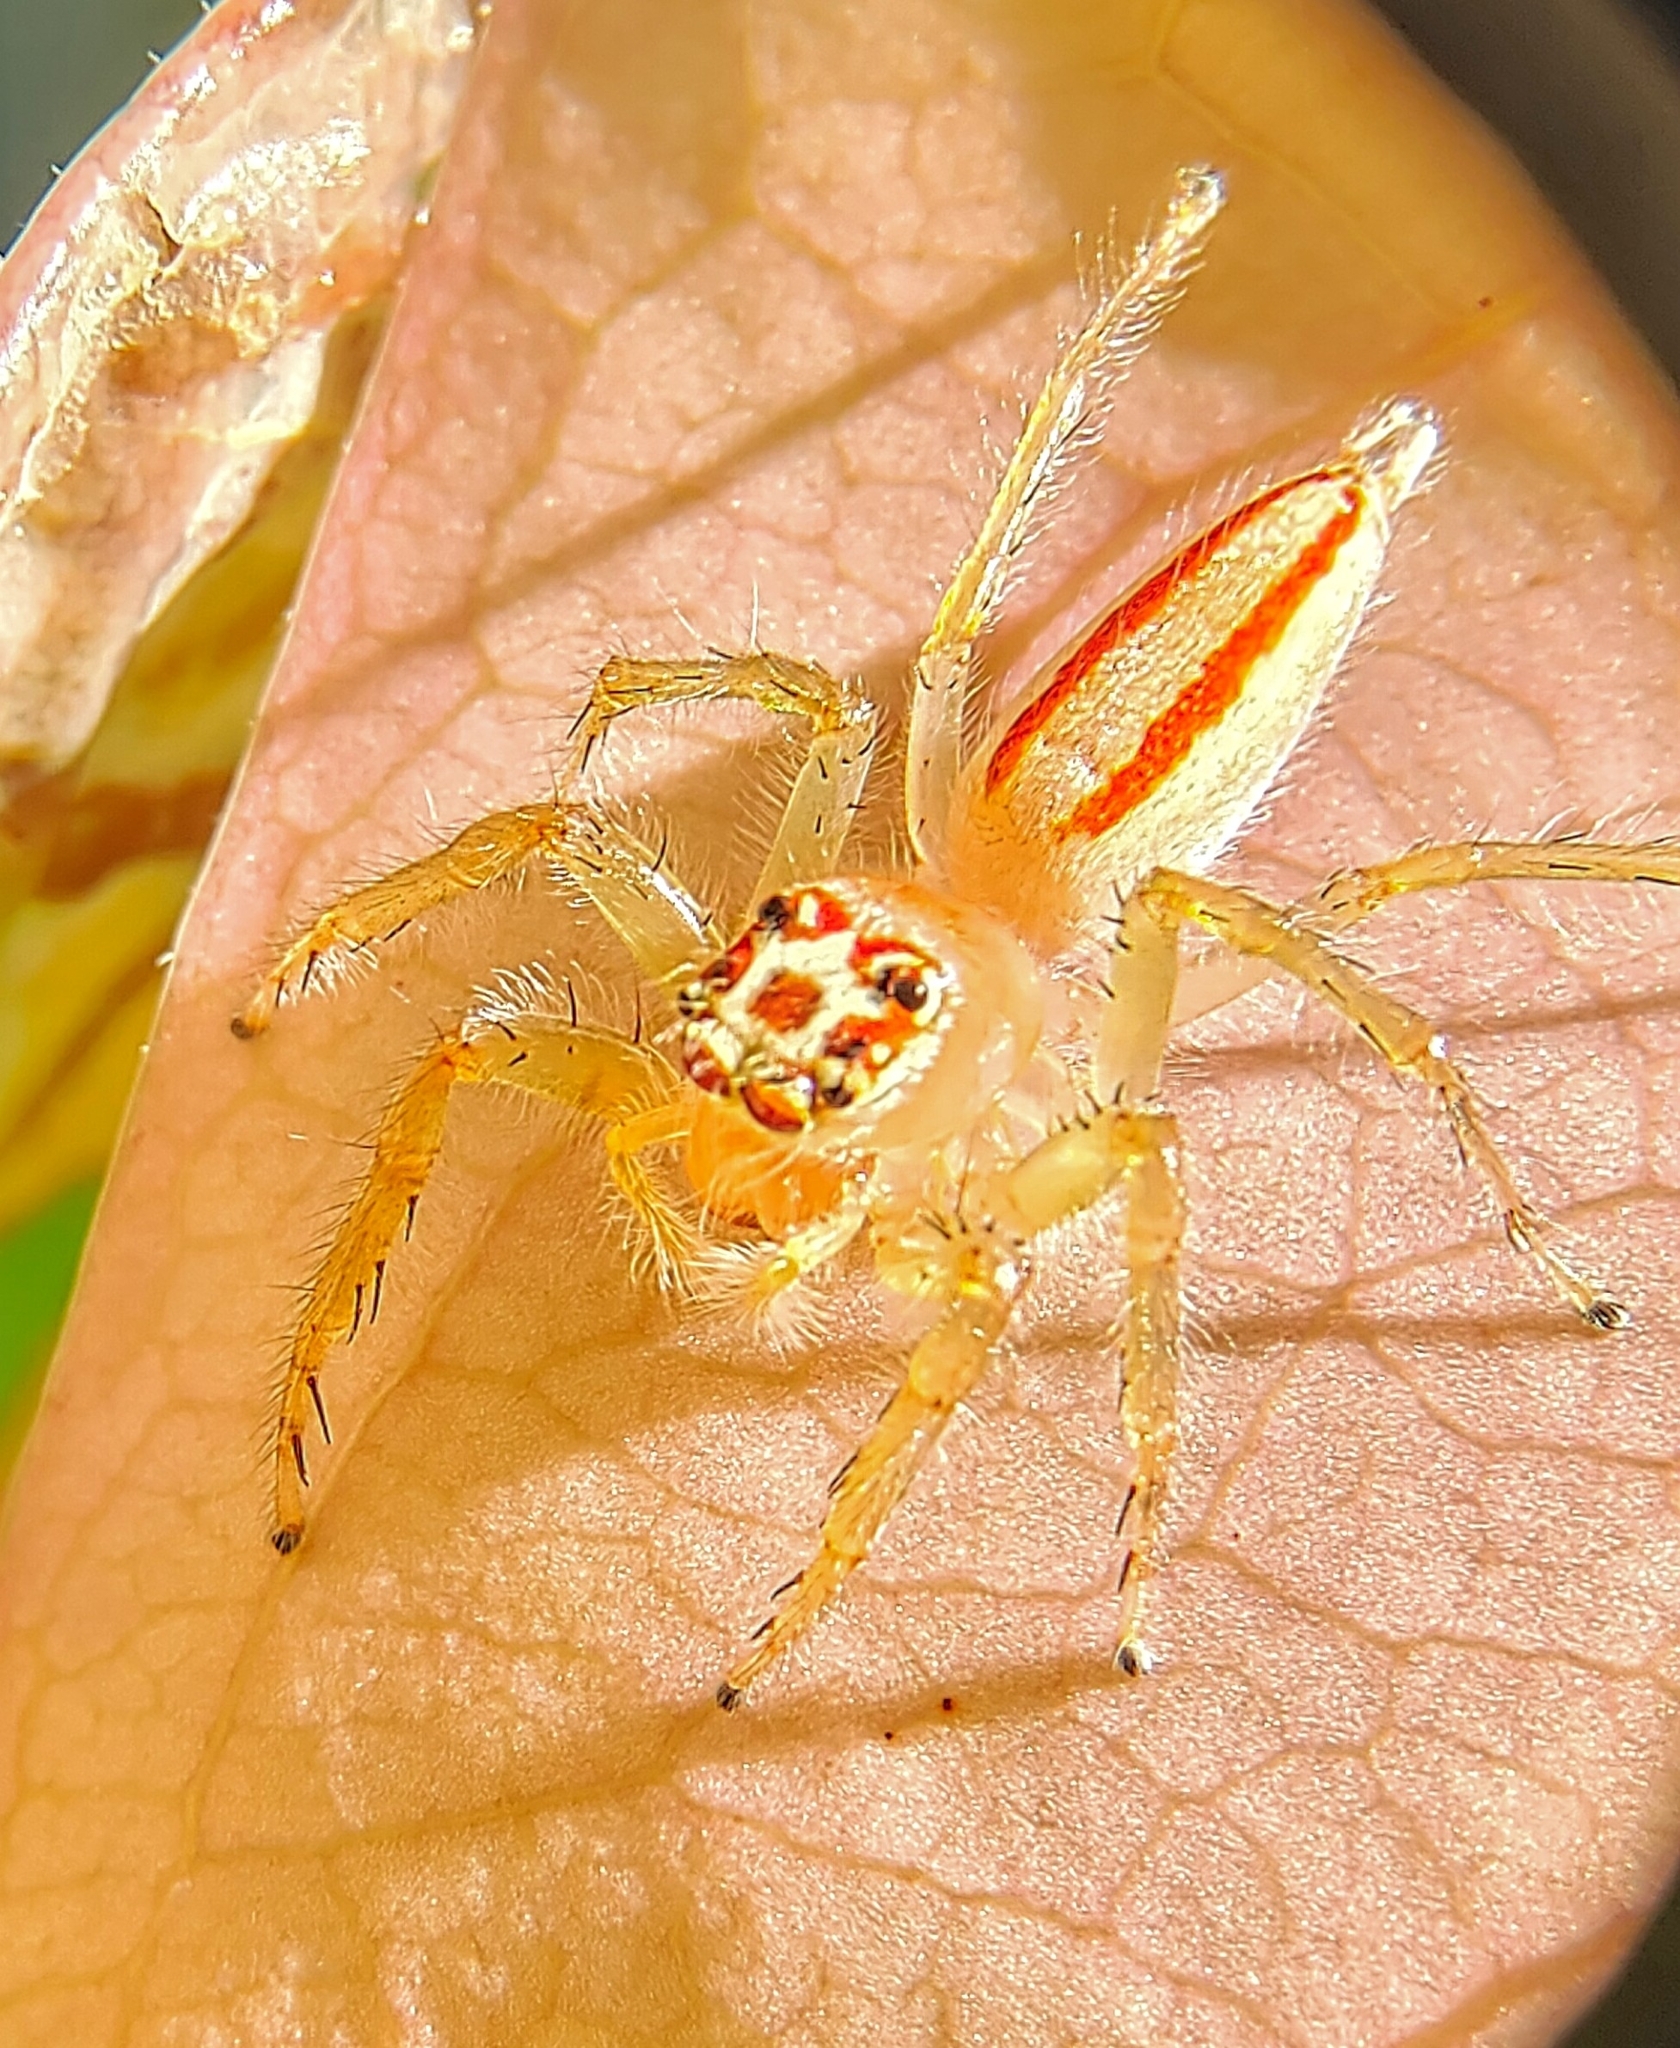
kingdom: Animalia
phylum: Arthropoda
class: Arachnida
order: Araneae
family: Salticidae
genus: Telamonia
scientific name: Telamonia dimidiata
